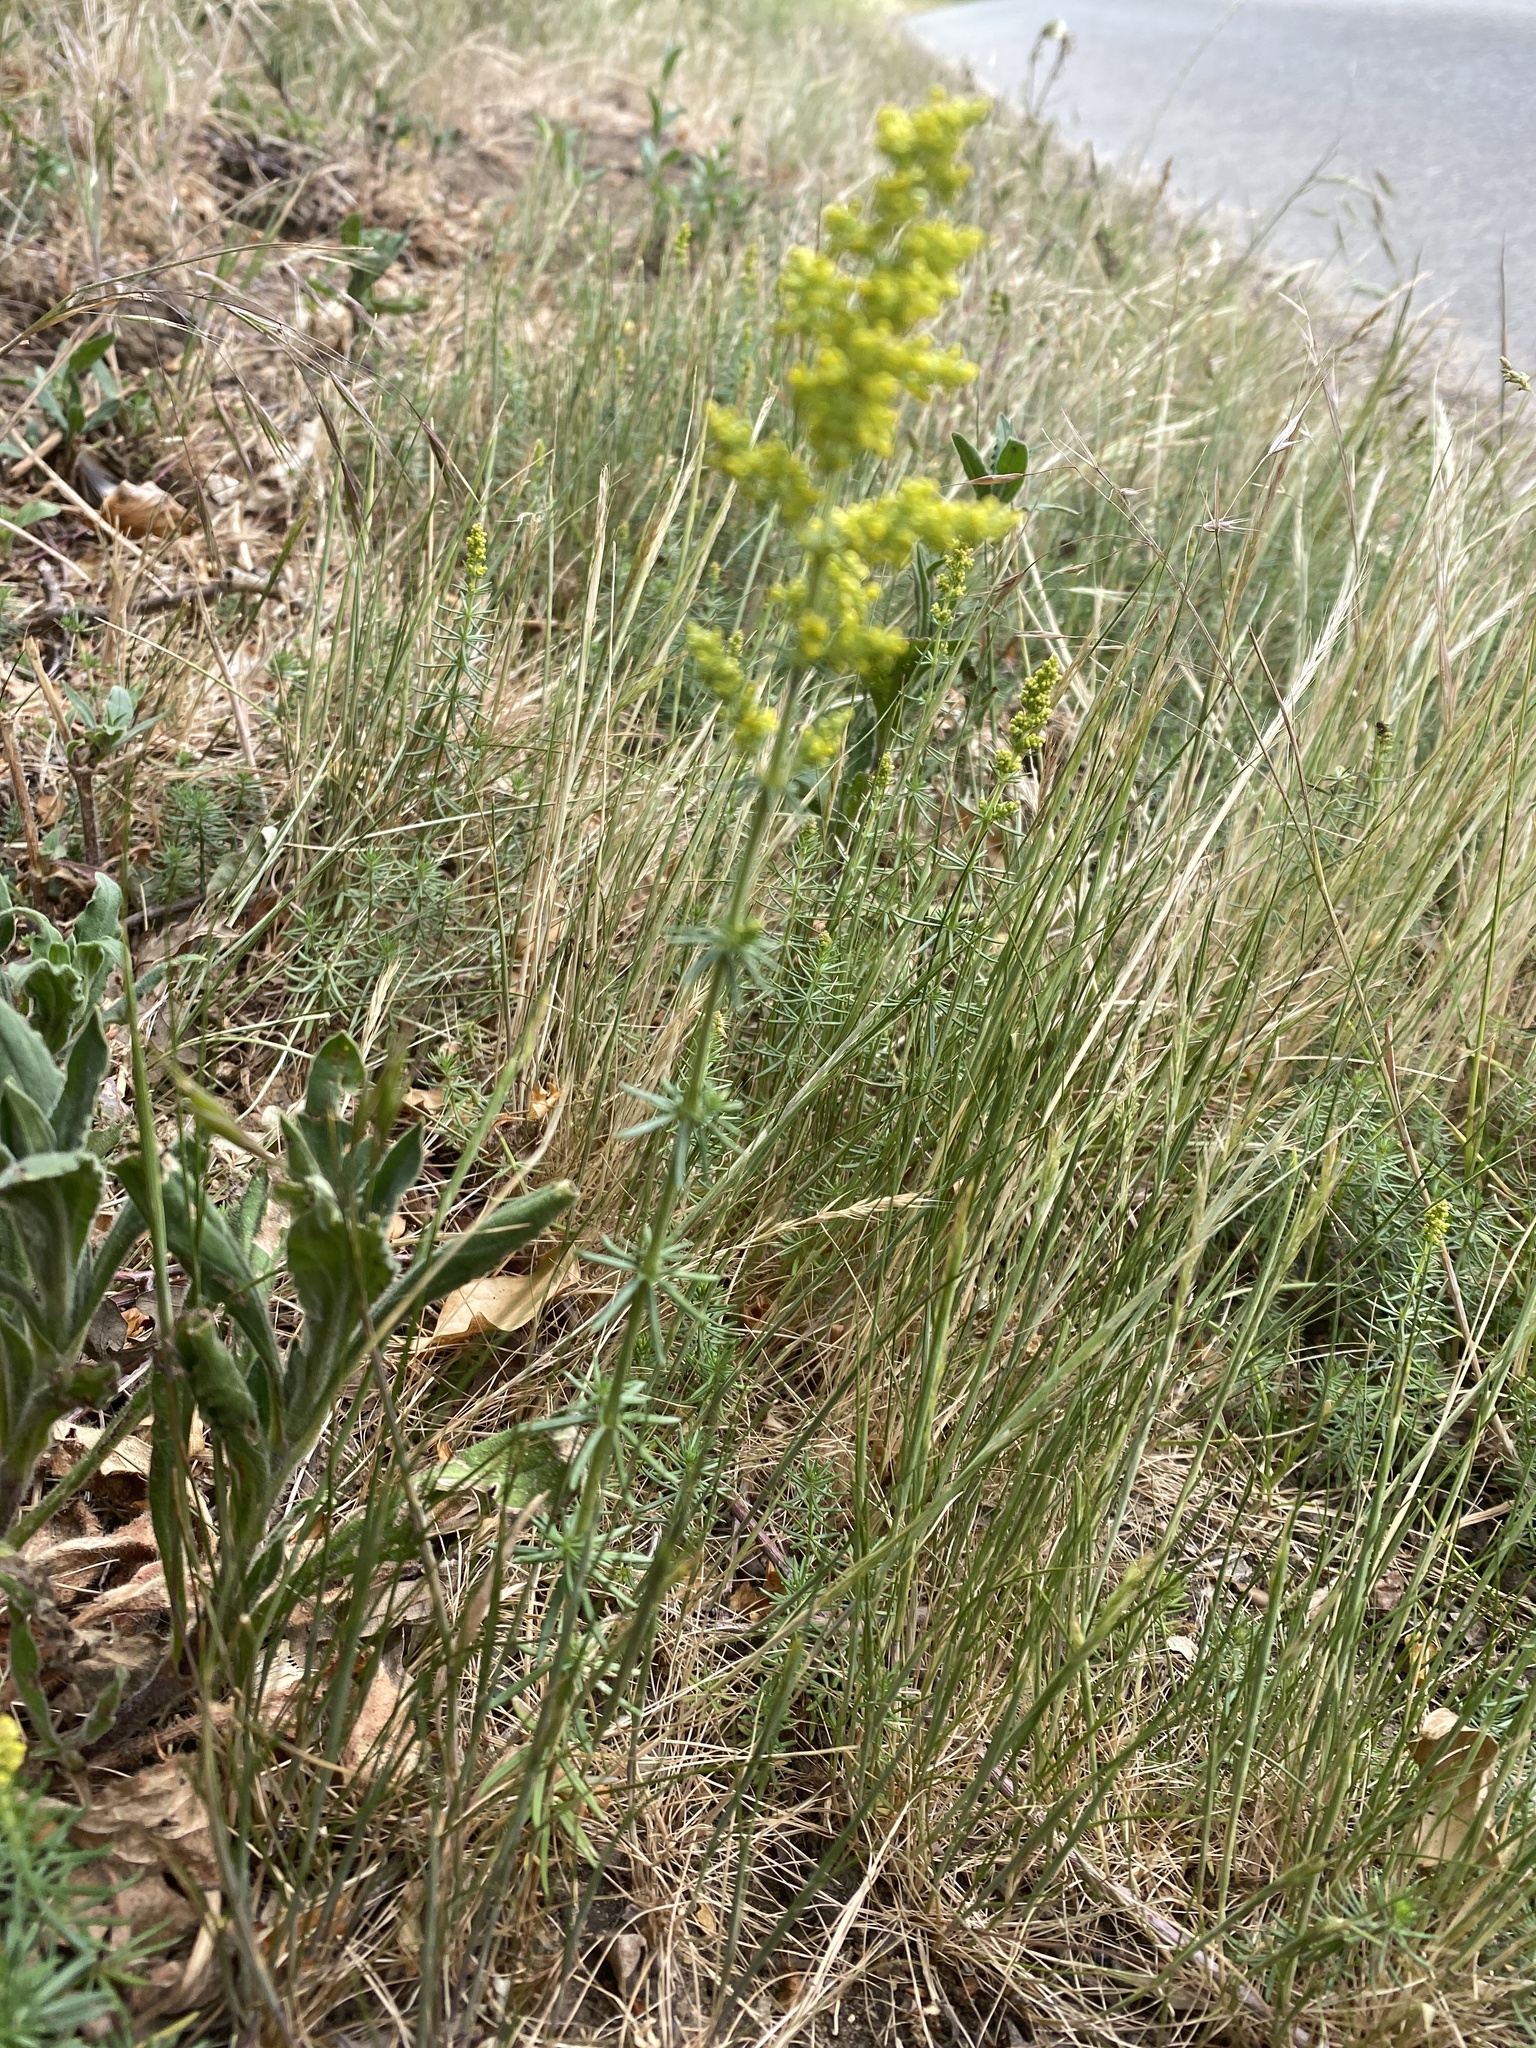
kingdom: Plantae
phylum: Tracheophyta
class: Magnoliopsida
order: Gentianales
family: Rubiaceae
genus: Galium
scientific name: Galium verum
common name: Lady's bedstraw
